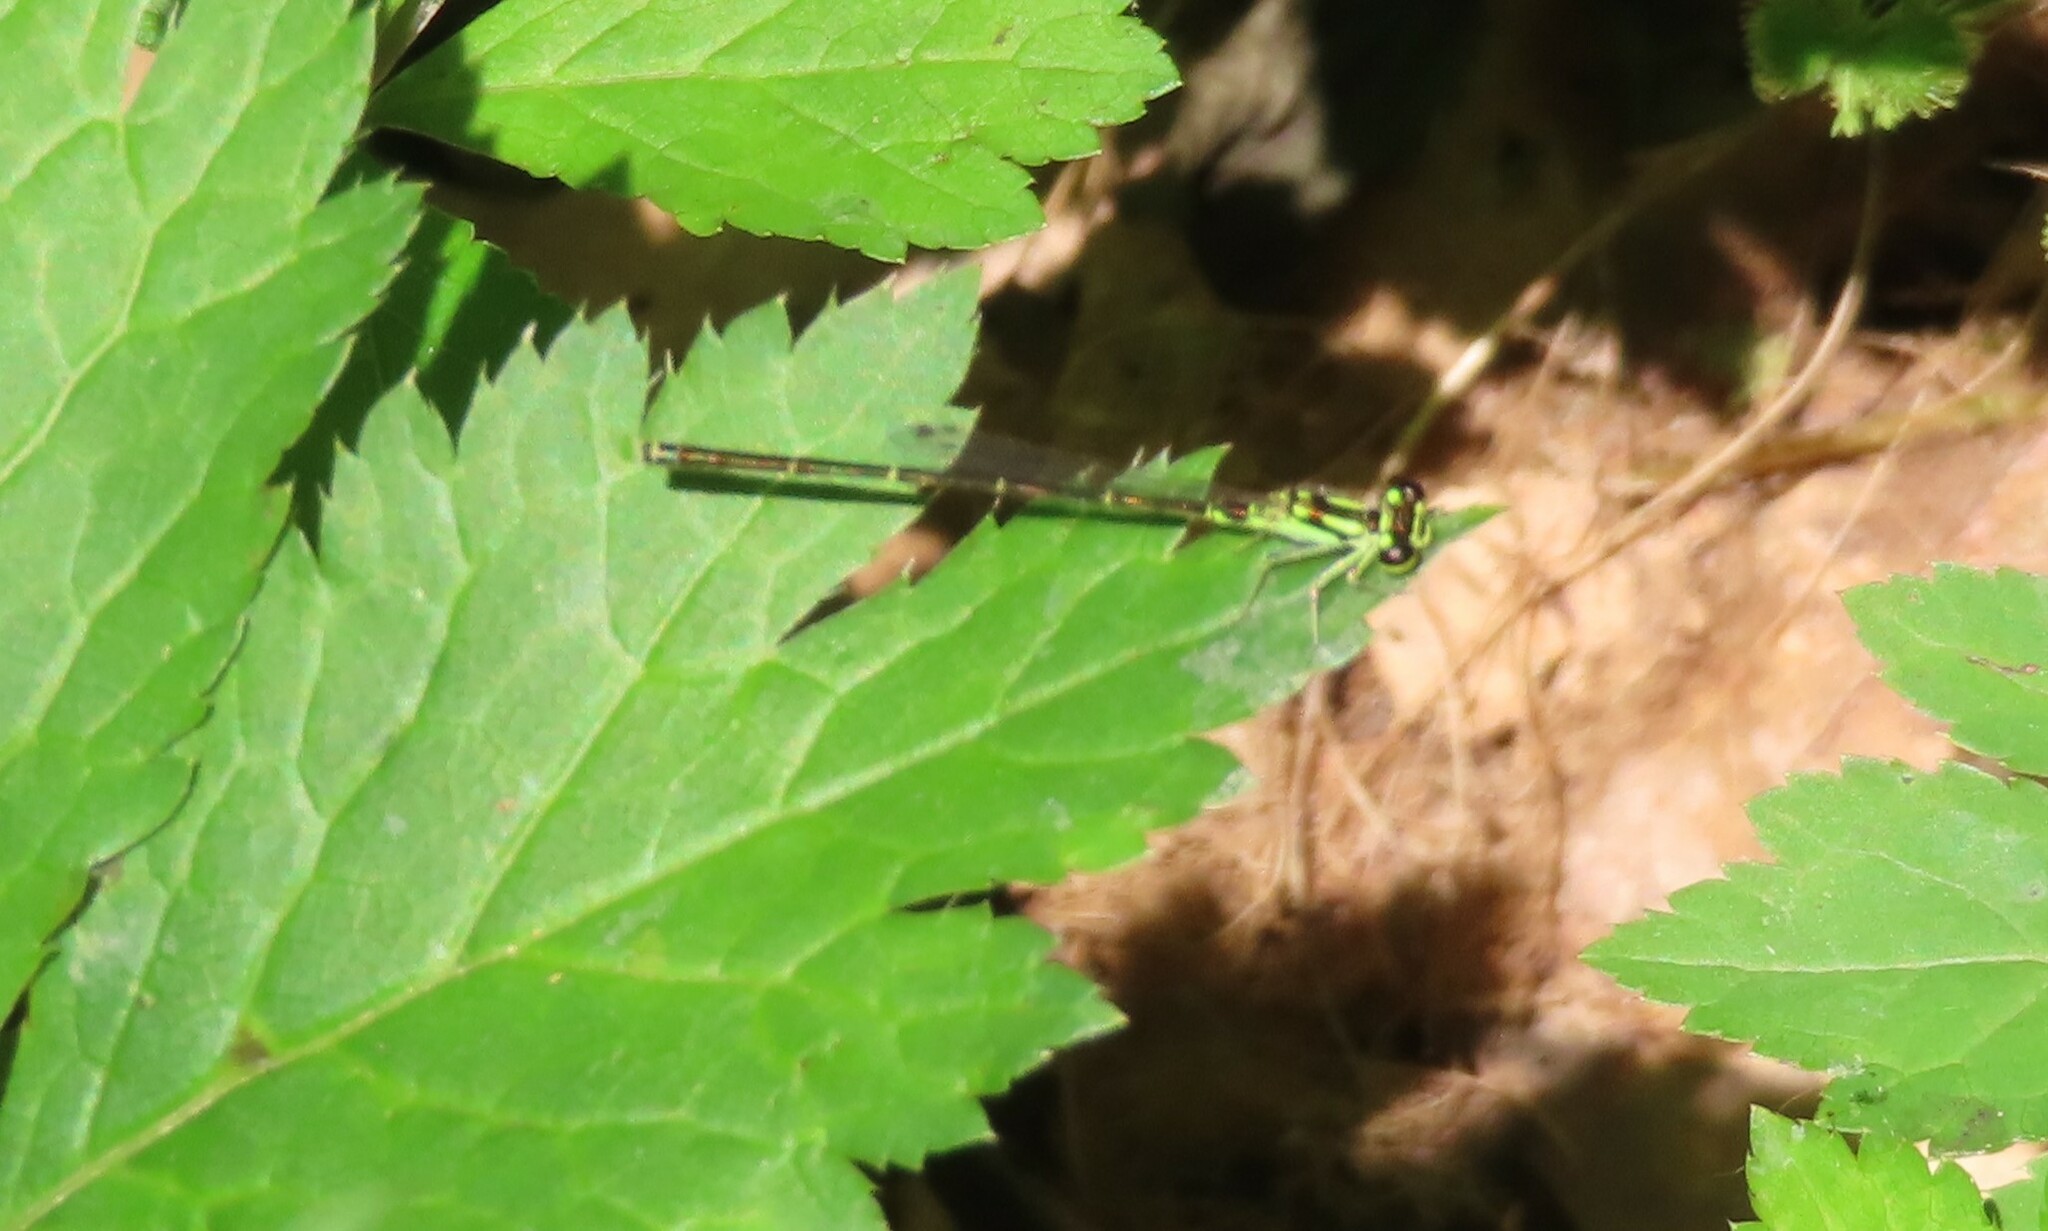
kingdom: Animalia
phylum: Arthropoda
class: Insecta
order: Odonata
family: Coenagrionidae
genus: Ischnura
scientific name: Ischnura posita
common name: Fragile forktail
